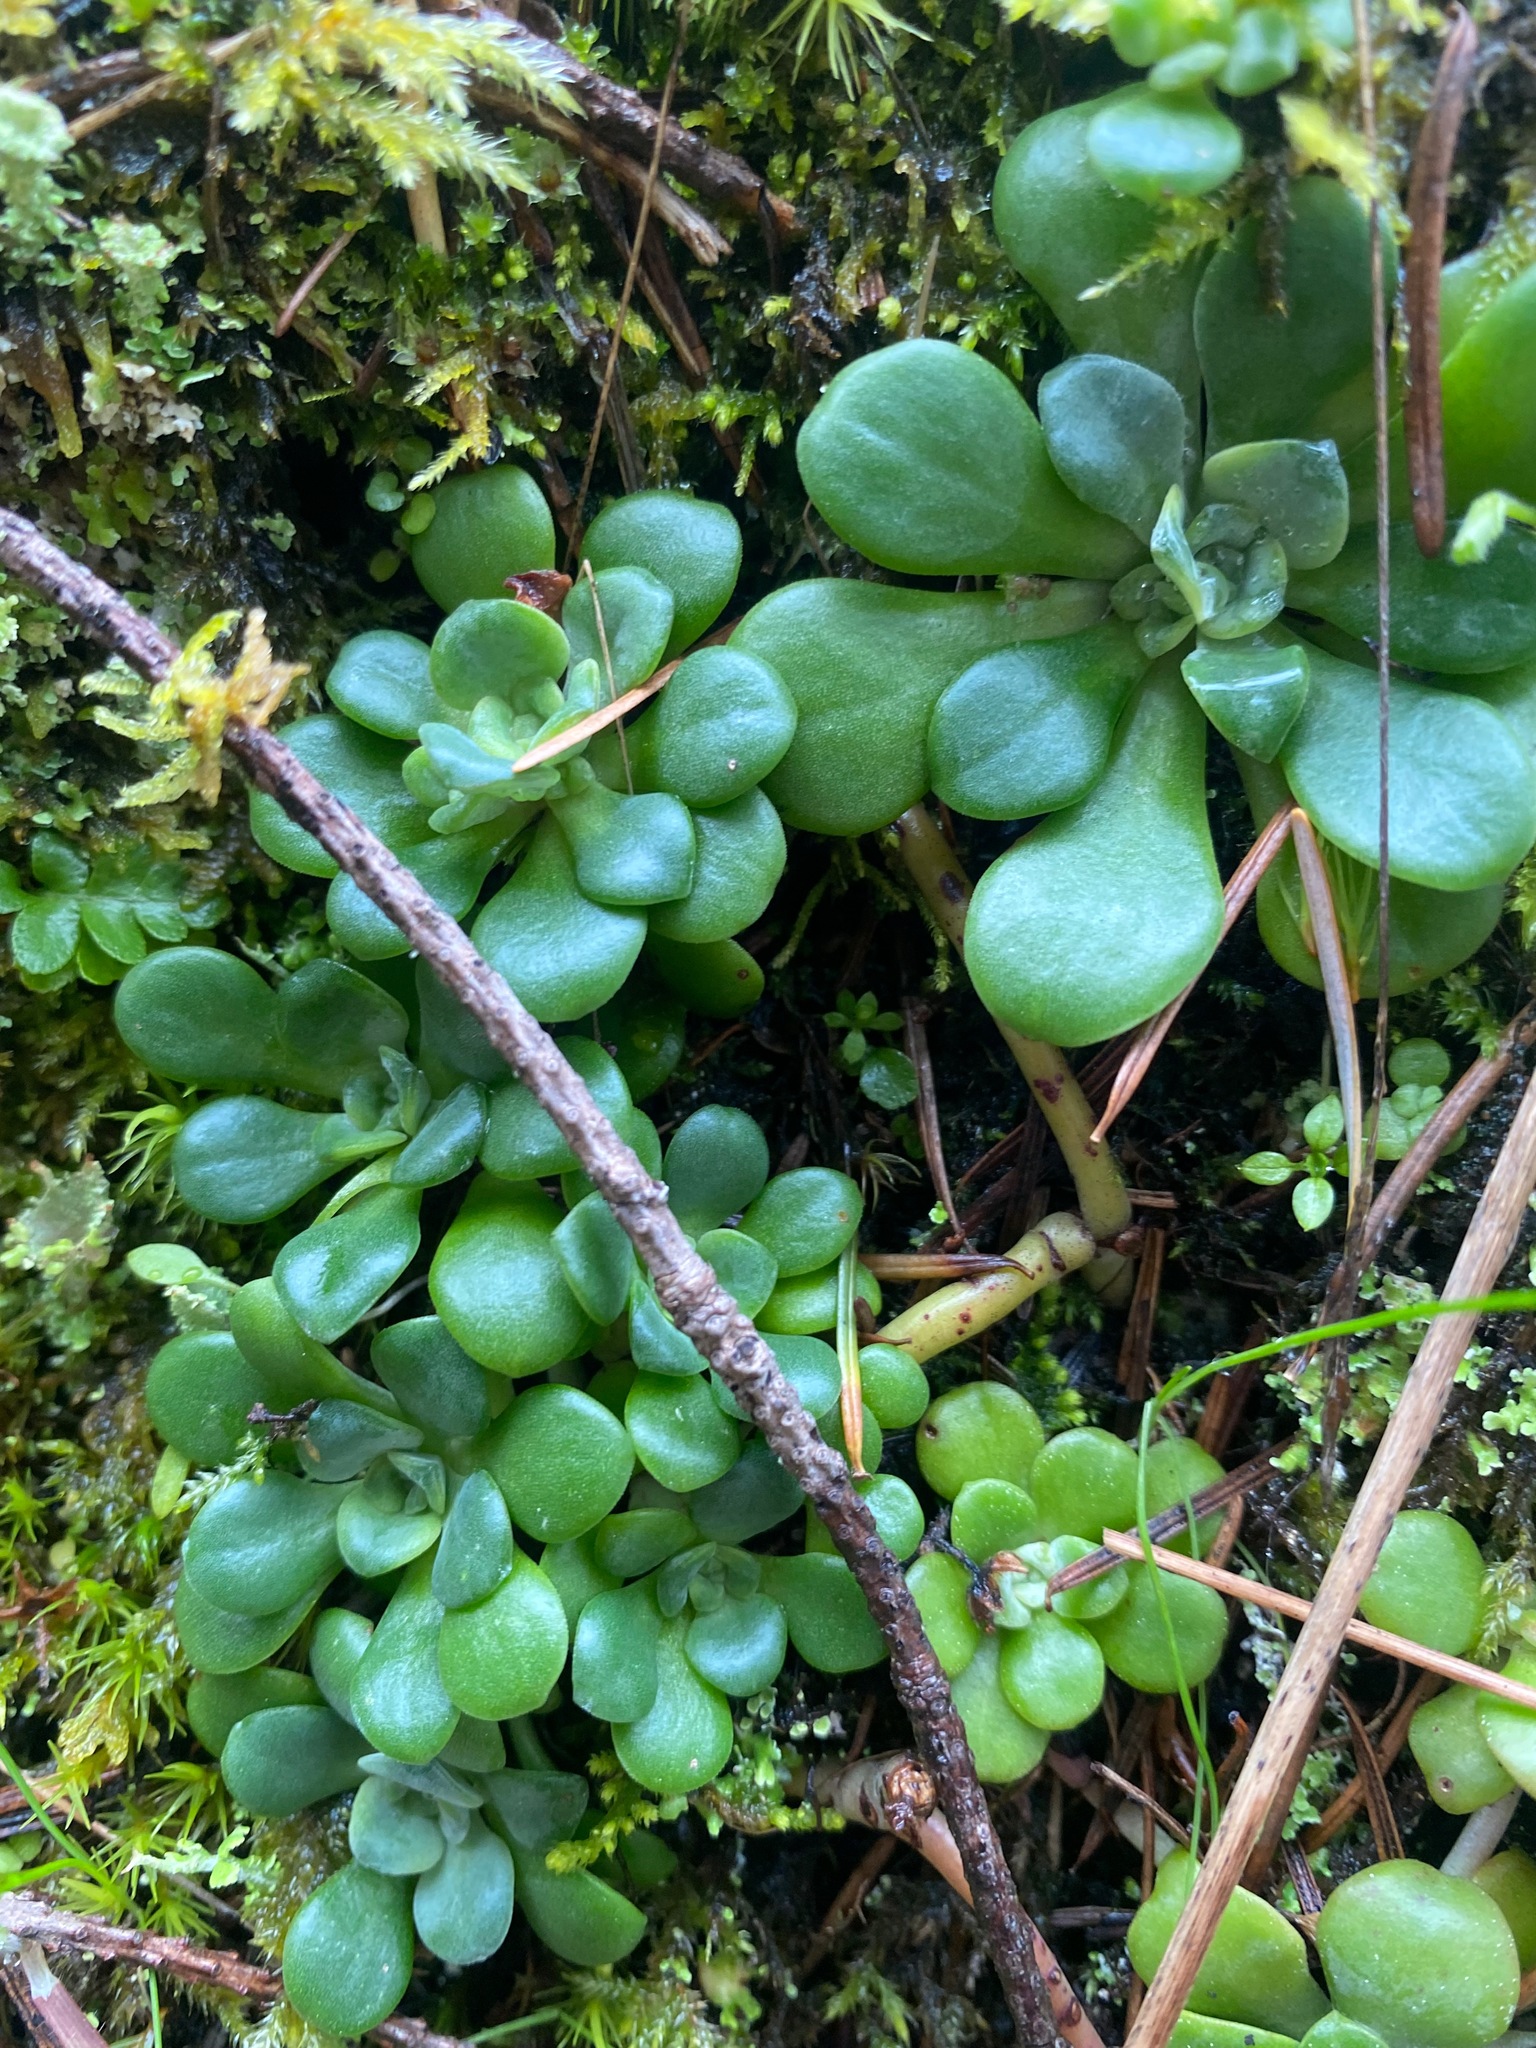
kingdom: Plantae
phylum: Tracheophyta
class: Magnoliopsida
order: Saxifragales
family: Crassulaceae
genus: Sedum
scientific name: Sedum spathulifolium
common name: Colorado stonecrop
